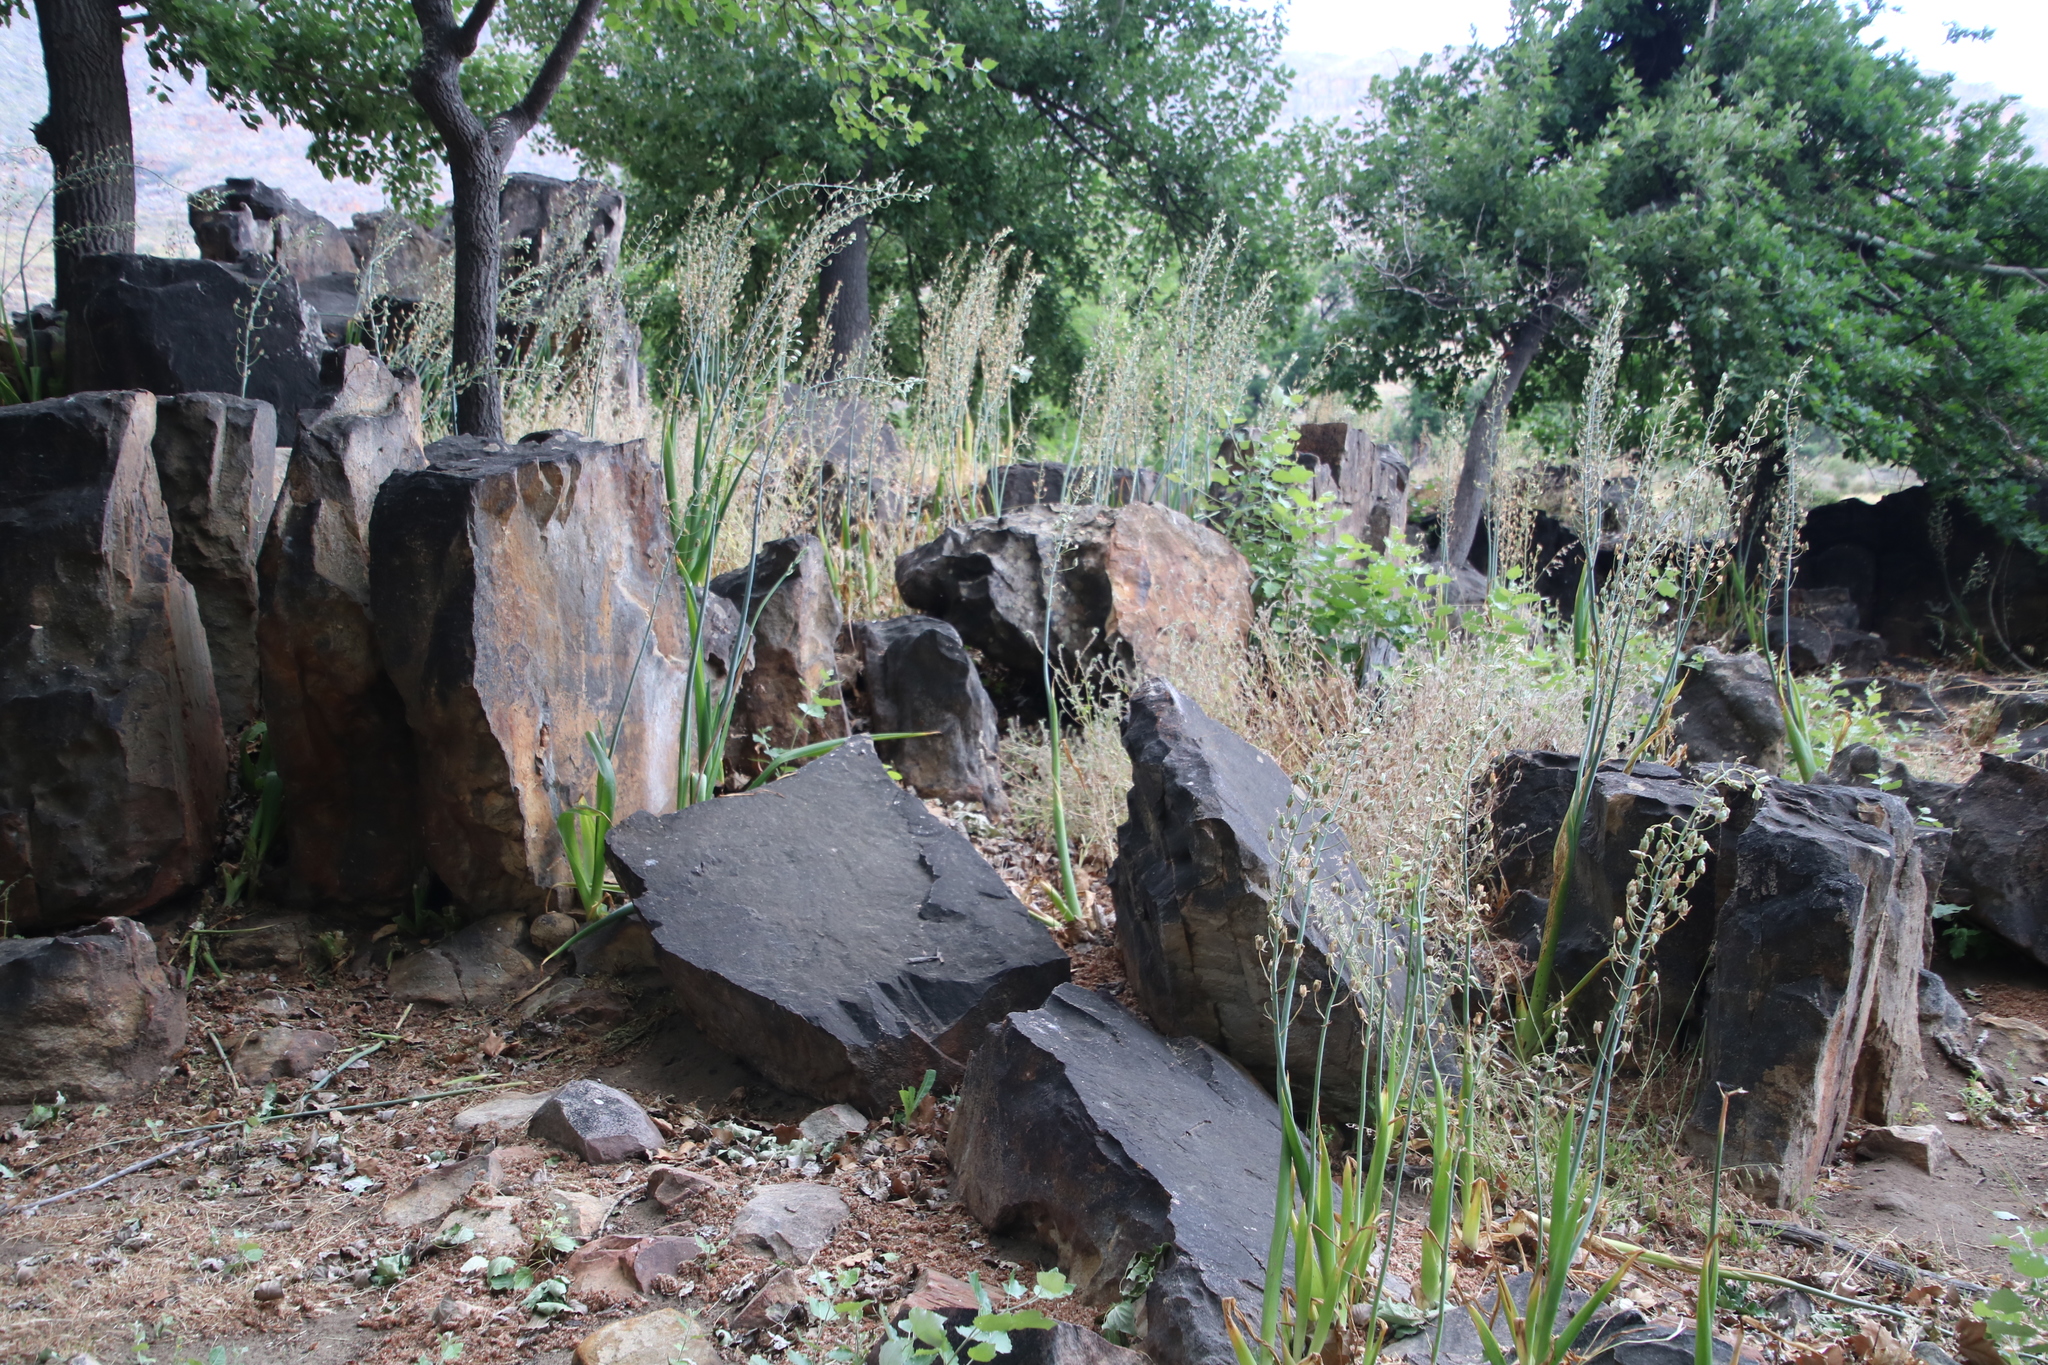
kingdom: Plantae
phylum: Tracheophyta
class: Liliopsida
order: Asparagales
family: Asparagaceae
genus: Albuca
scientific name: Albuca canadensis
